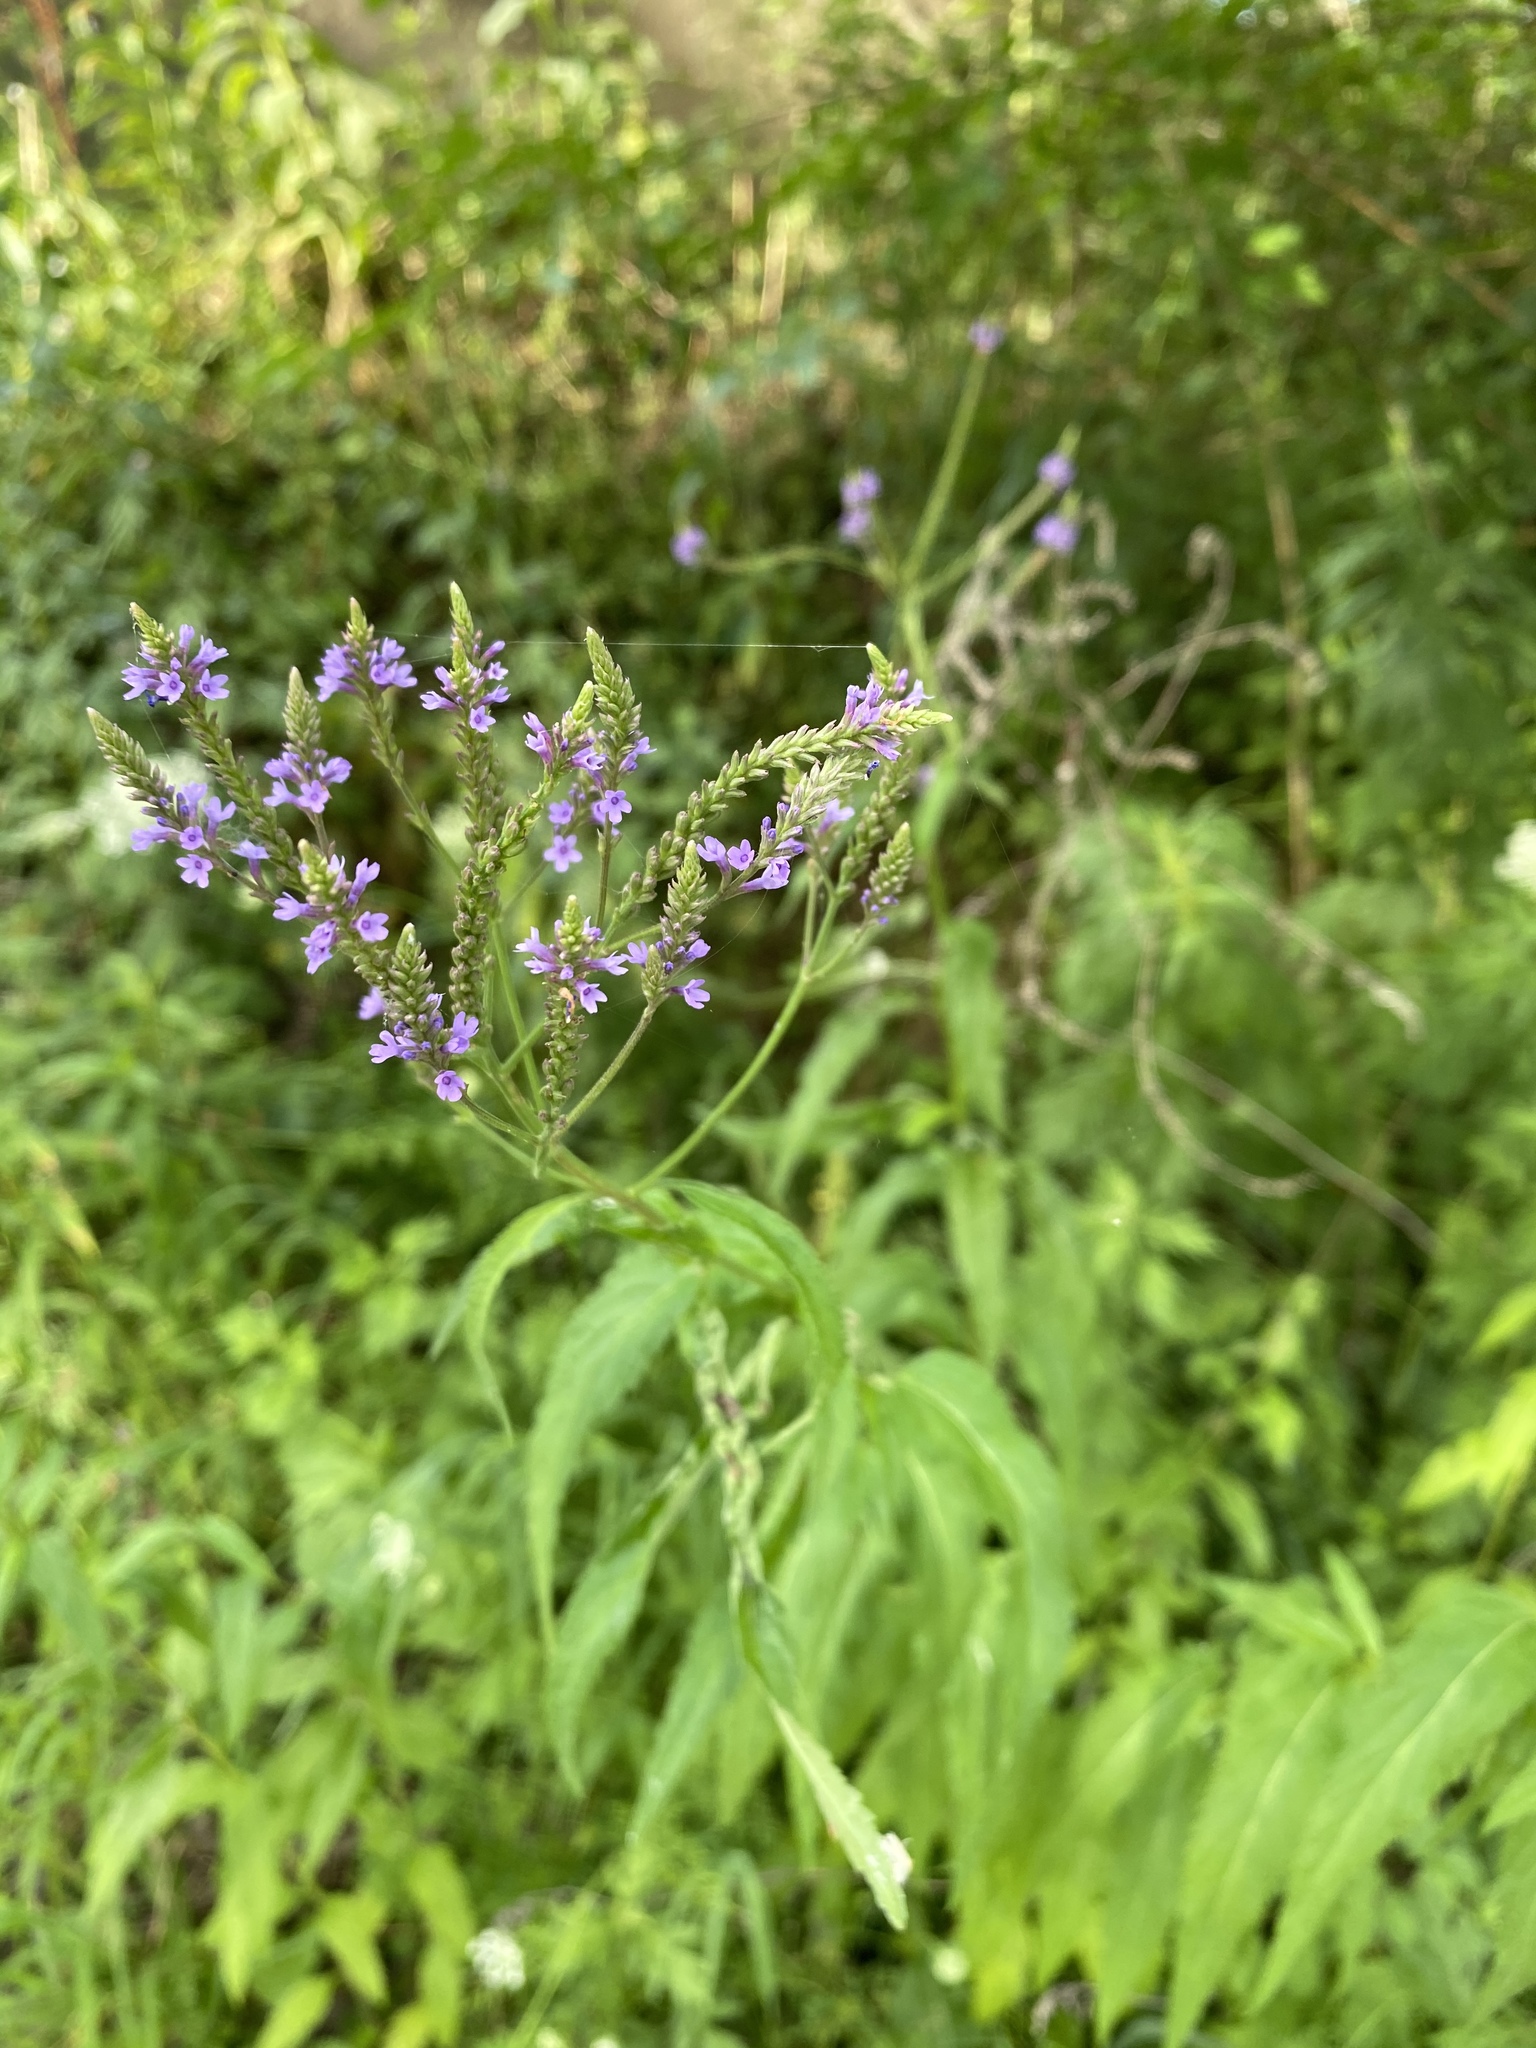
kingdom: Plantae
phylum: Tracheophyta
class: Magnoliopsida
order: Lamiales
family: Verbenaceae
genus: Verbena
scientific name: Verbena hastata
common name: American blue vervain
